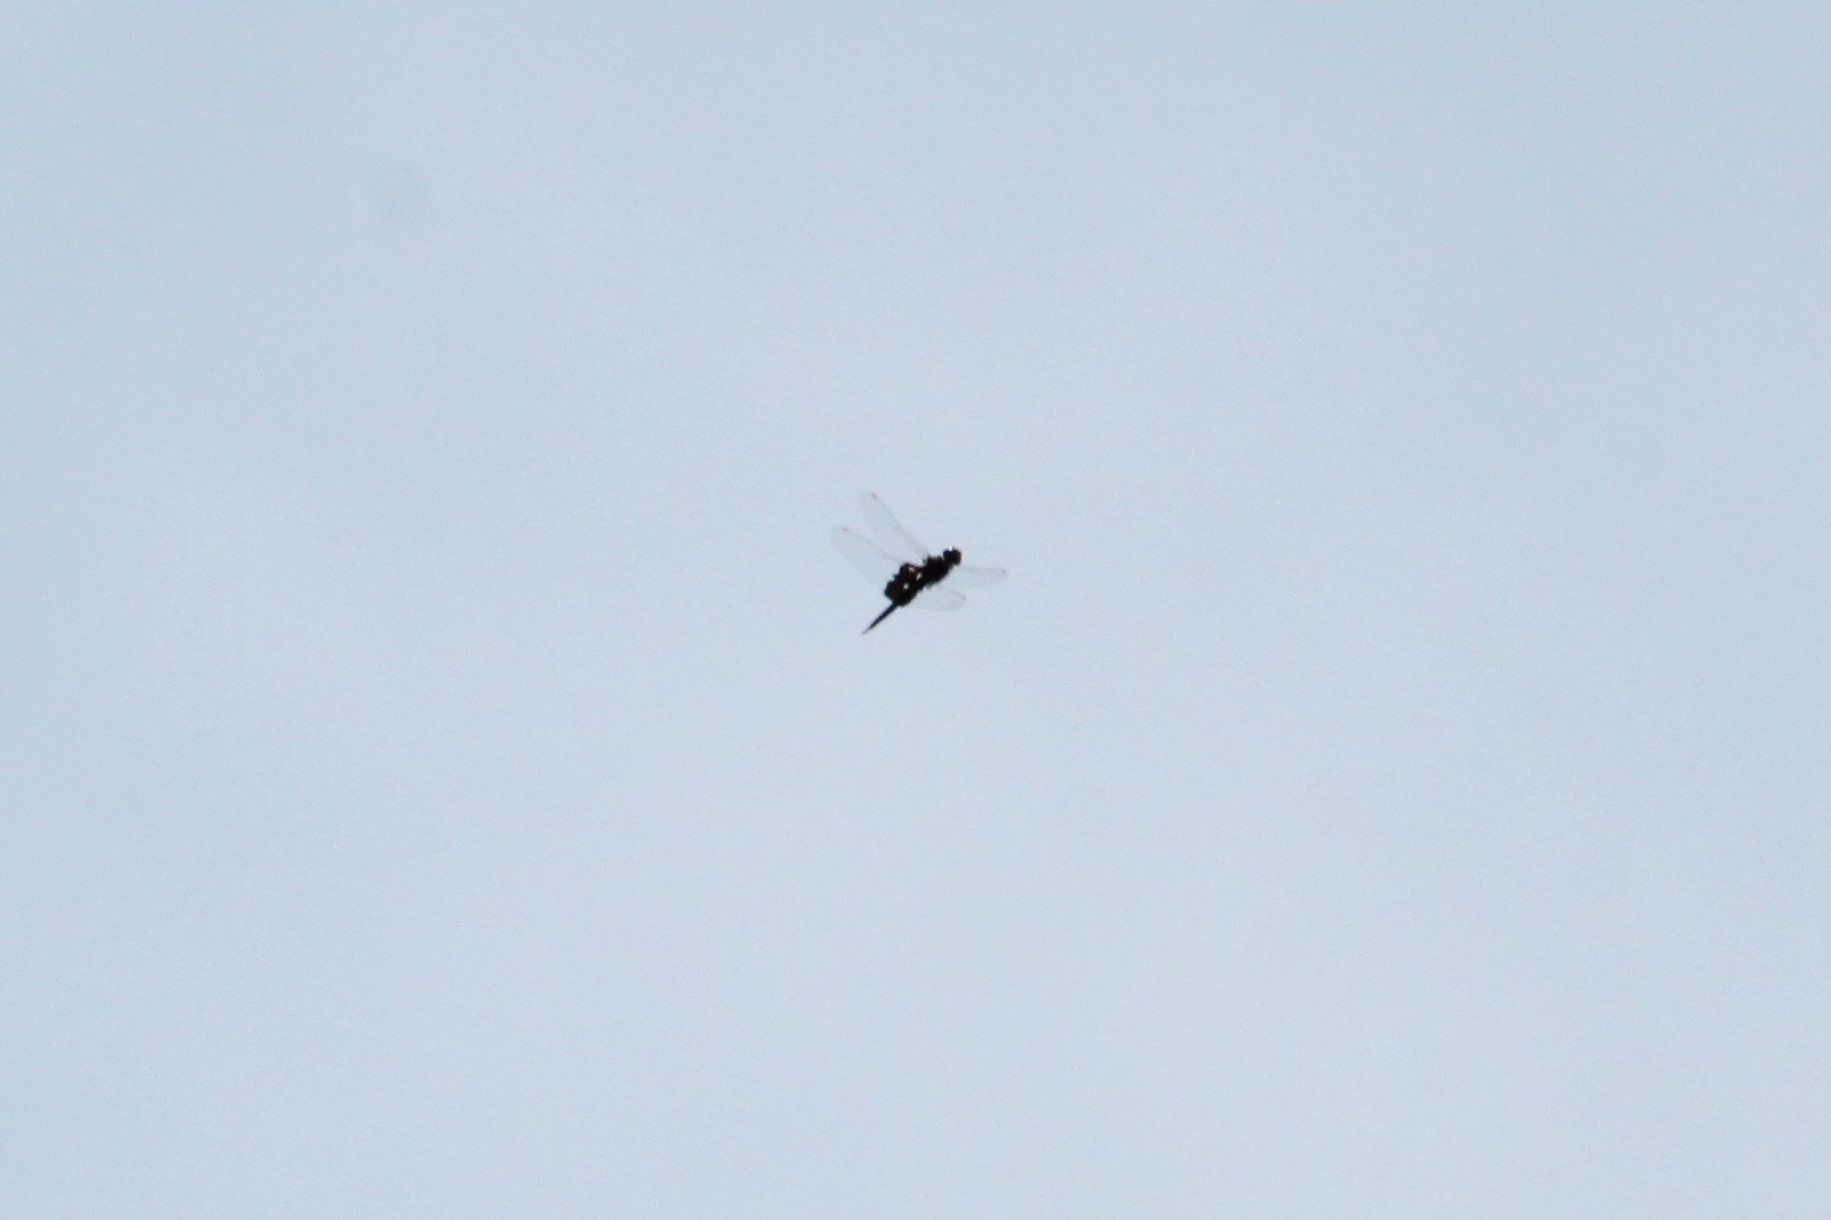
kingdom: Animalia
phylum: Arthropoda
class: Insecta
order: Odonata
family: Libellulidae
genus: Tramea
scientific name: Tramea lacerata
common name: Black saddlebags
